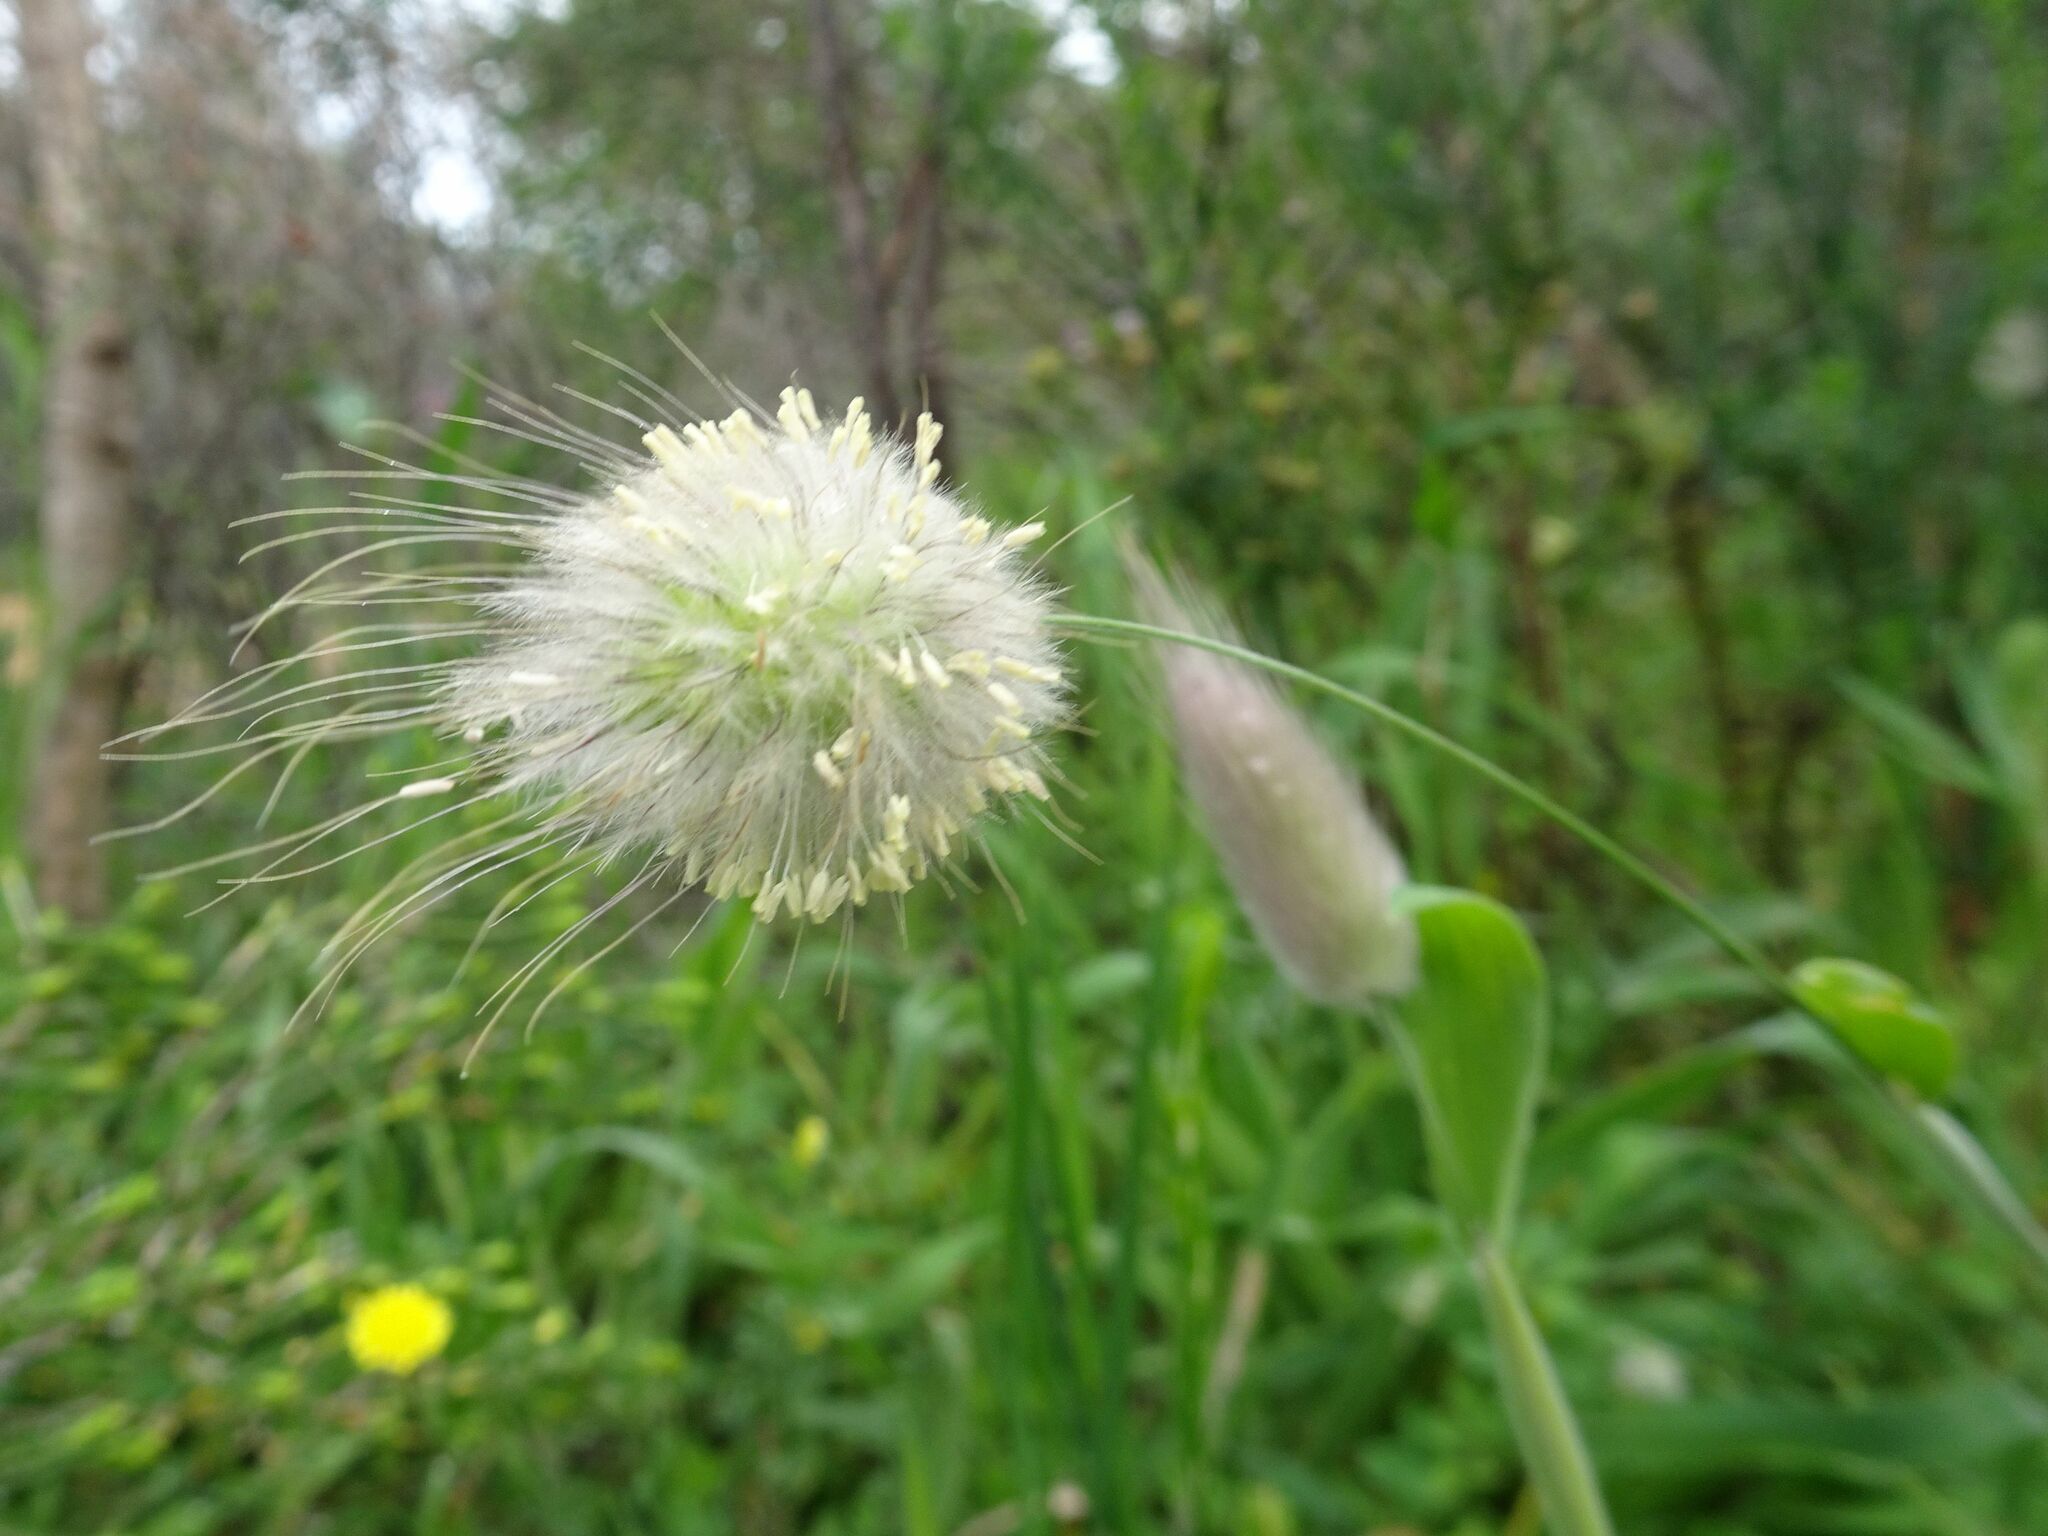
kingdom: Plantae
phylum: Tracheophyta
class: Liliopsida
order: Poales
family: Poaceae
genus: Lagurus
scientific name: Lagurus ovatus
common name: Hare's-tail
